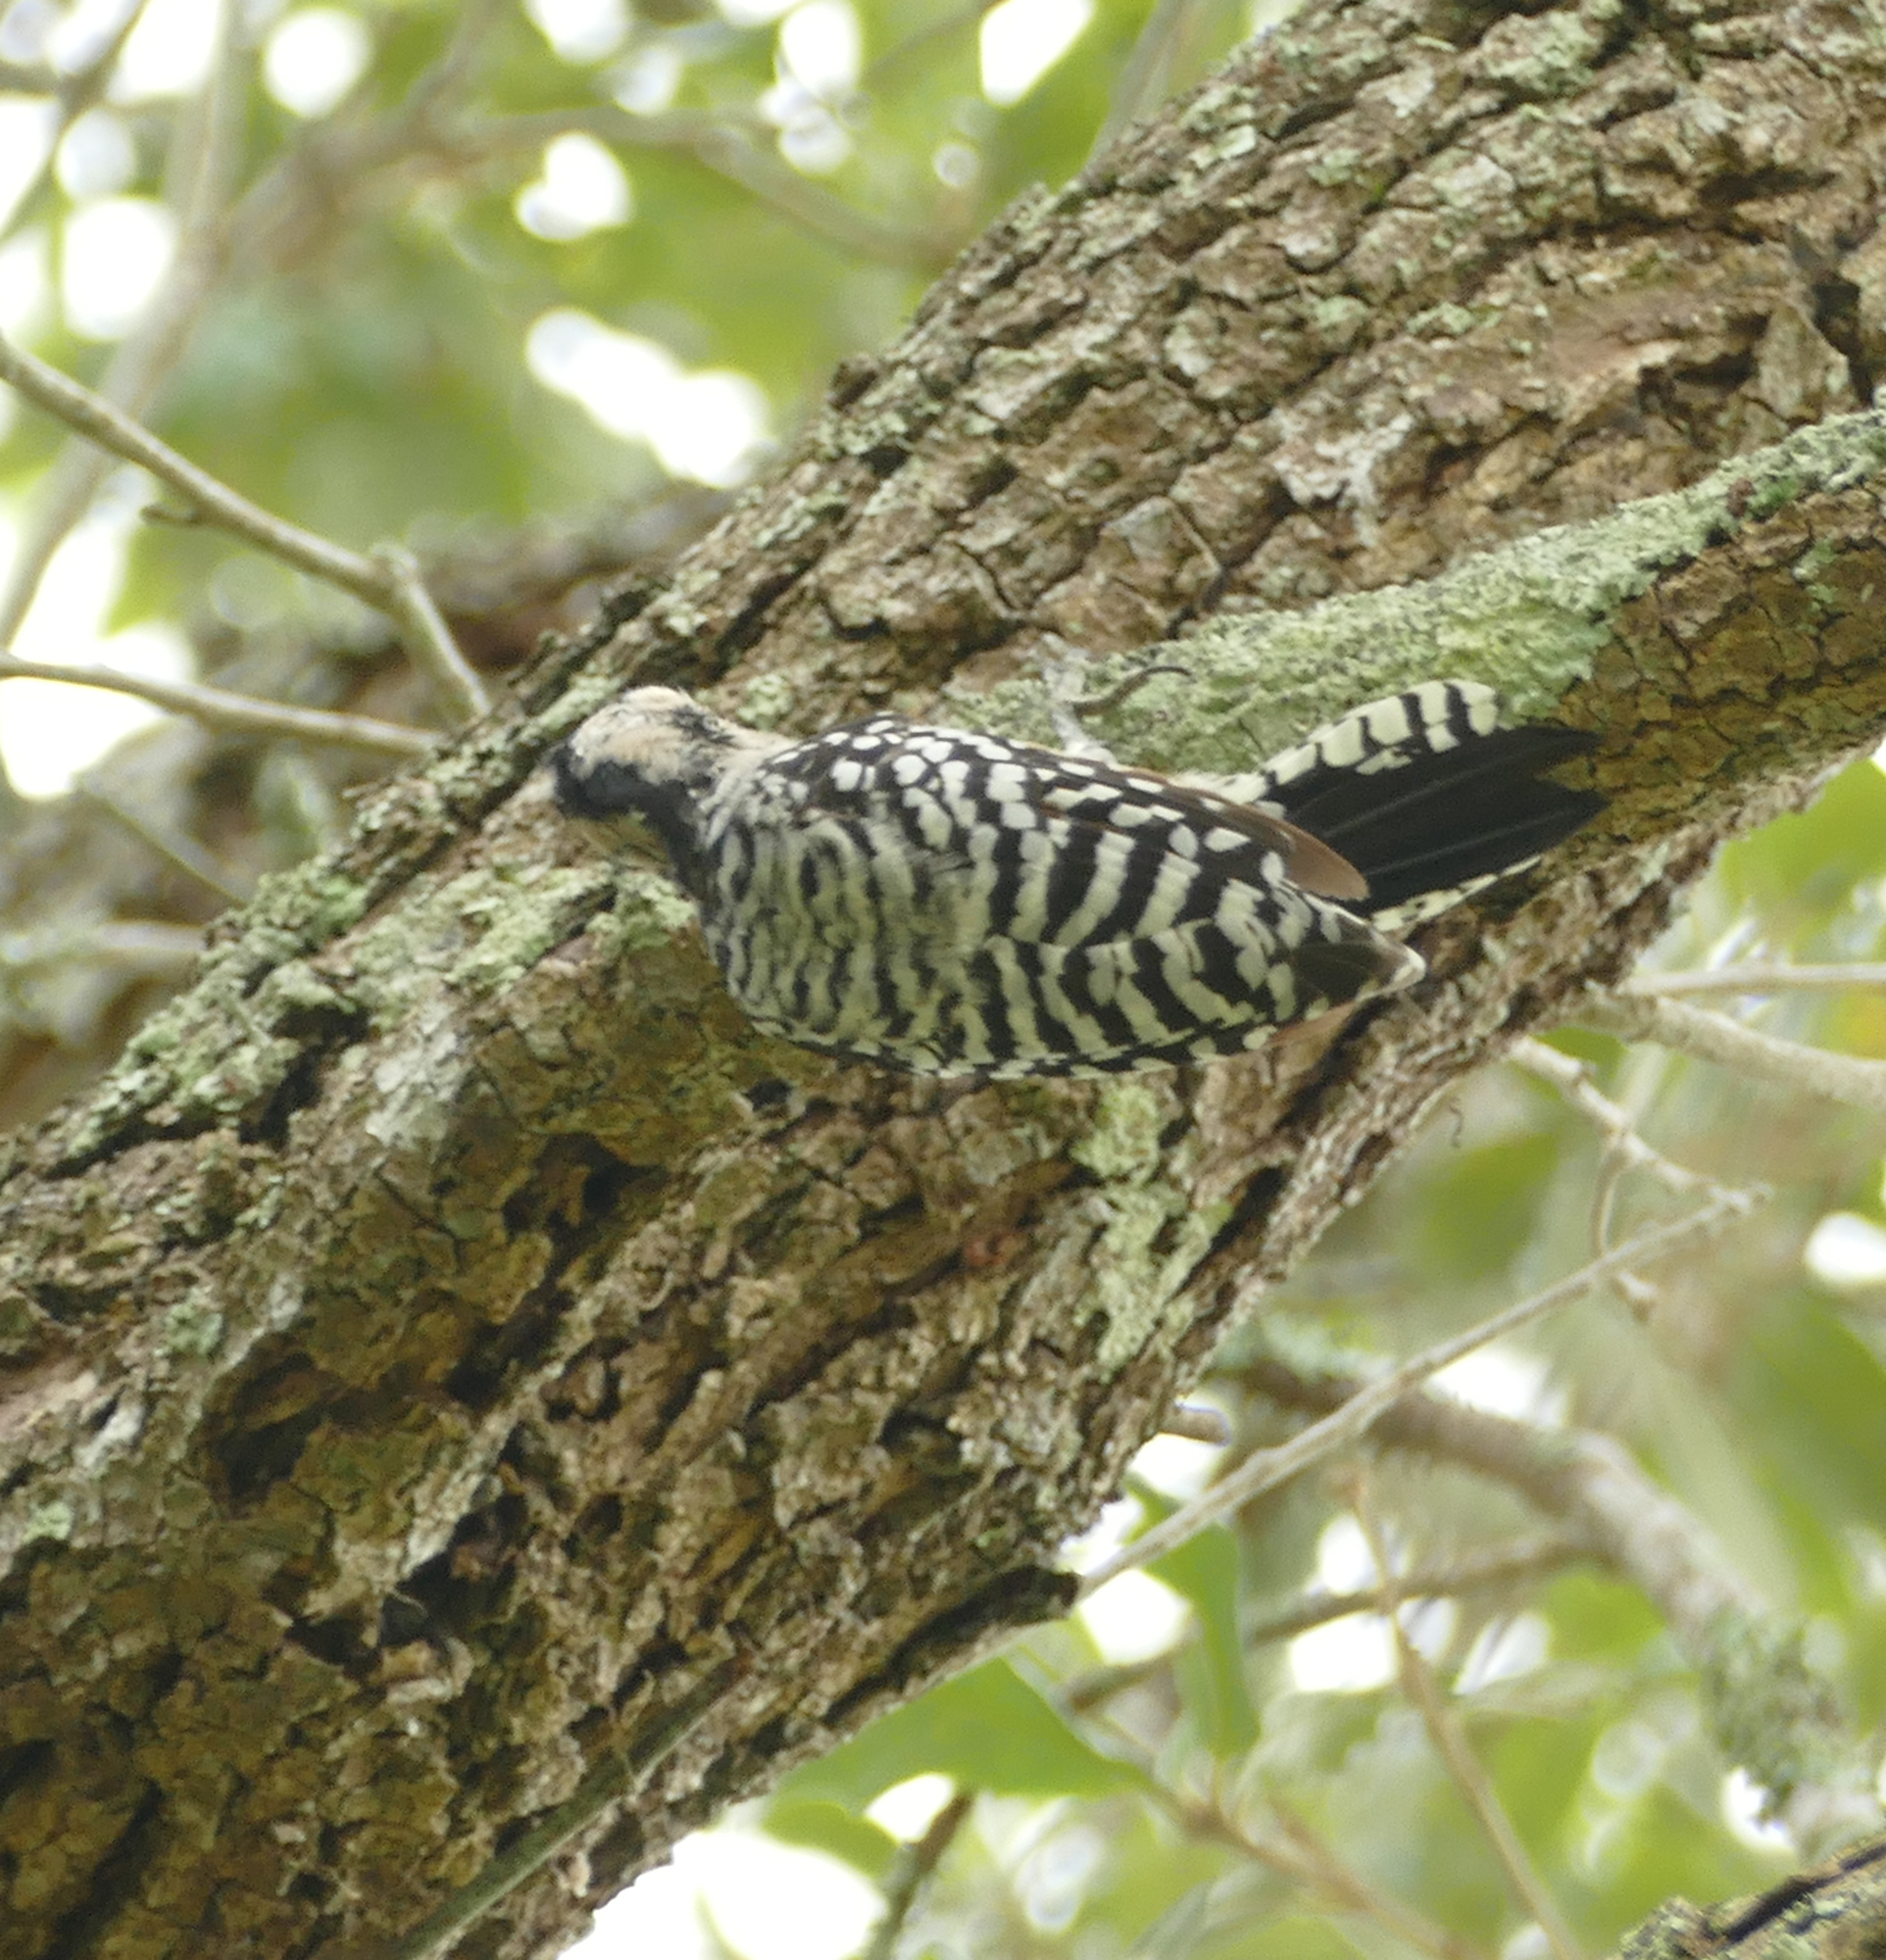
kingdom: Animalia
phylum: Chordata
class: Aves
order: Piciformes
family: Picidae
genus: Dryobates
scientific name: Dryobates scalaris
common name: Ladder-backed woodpecker
